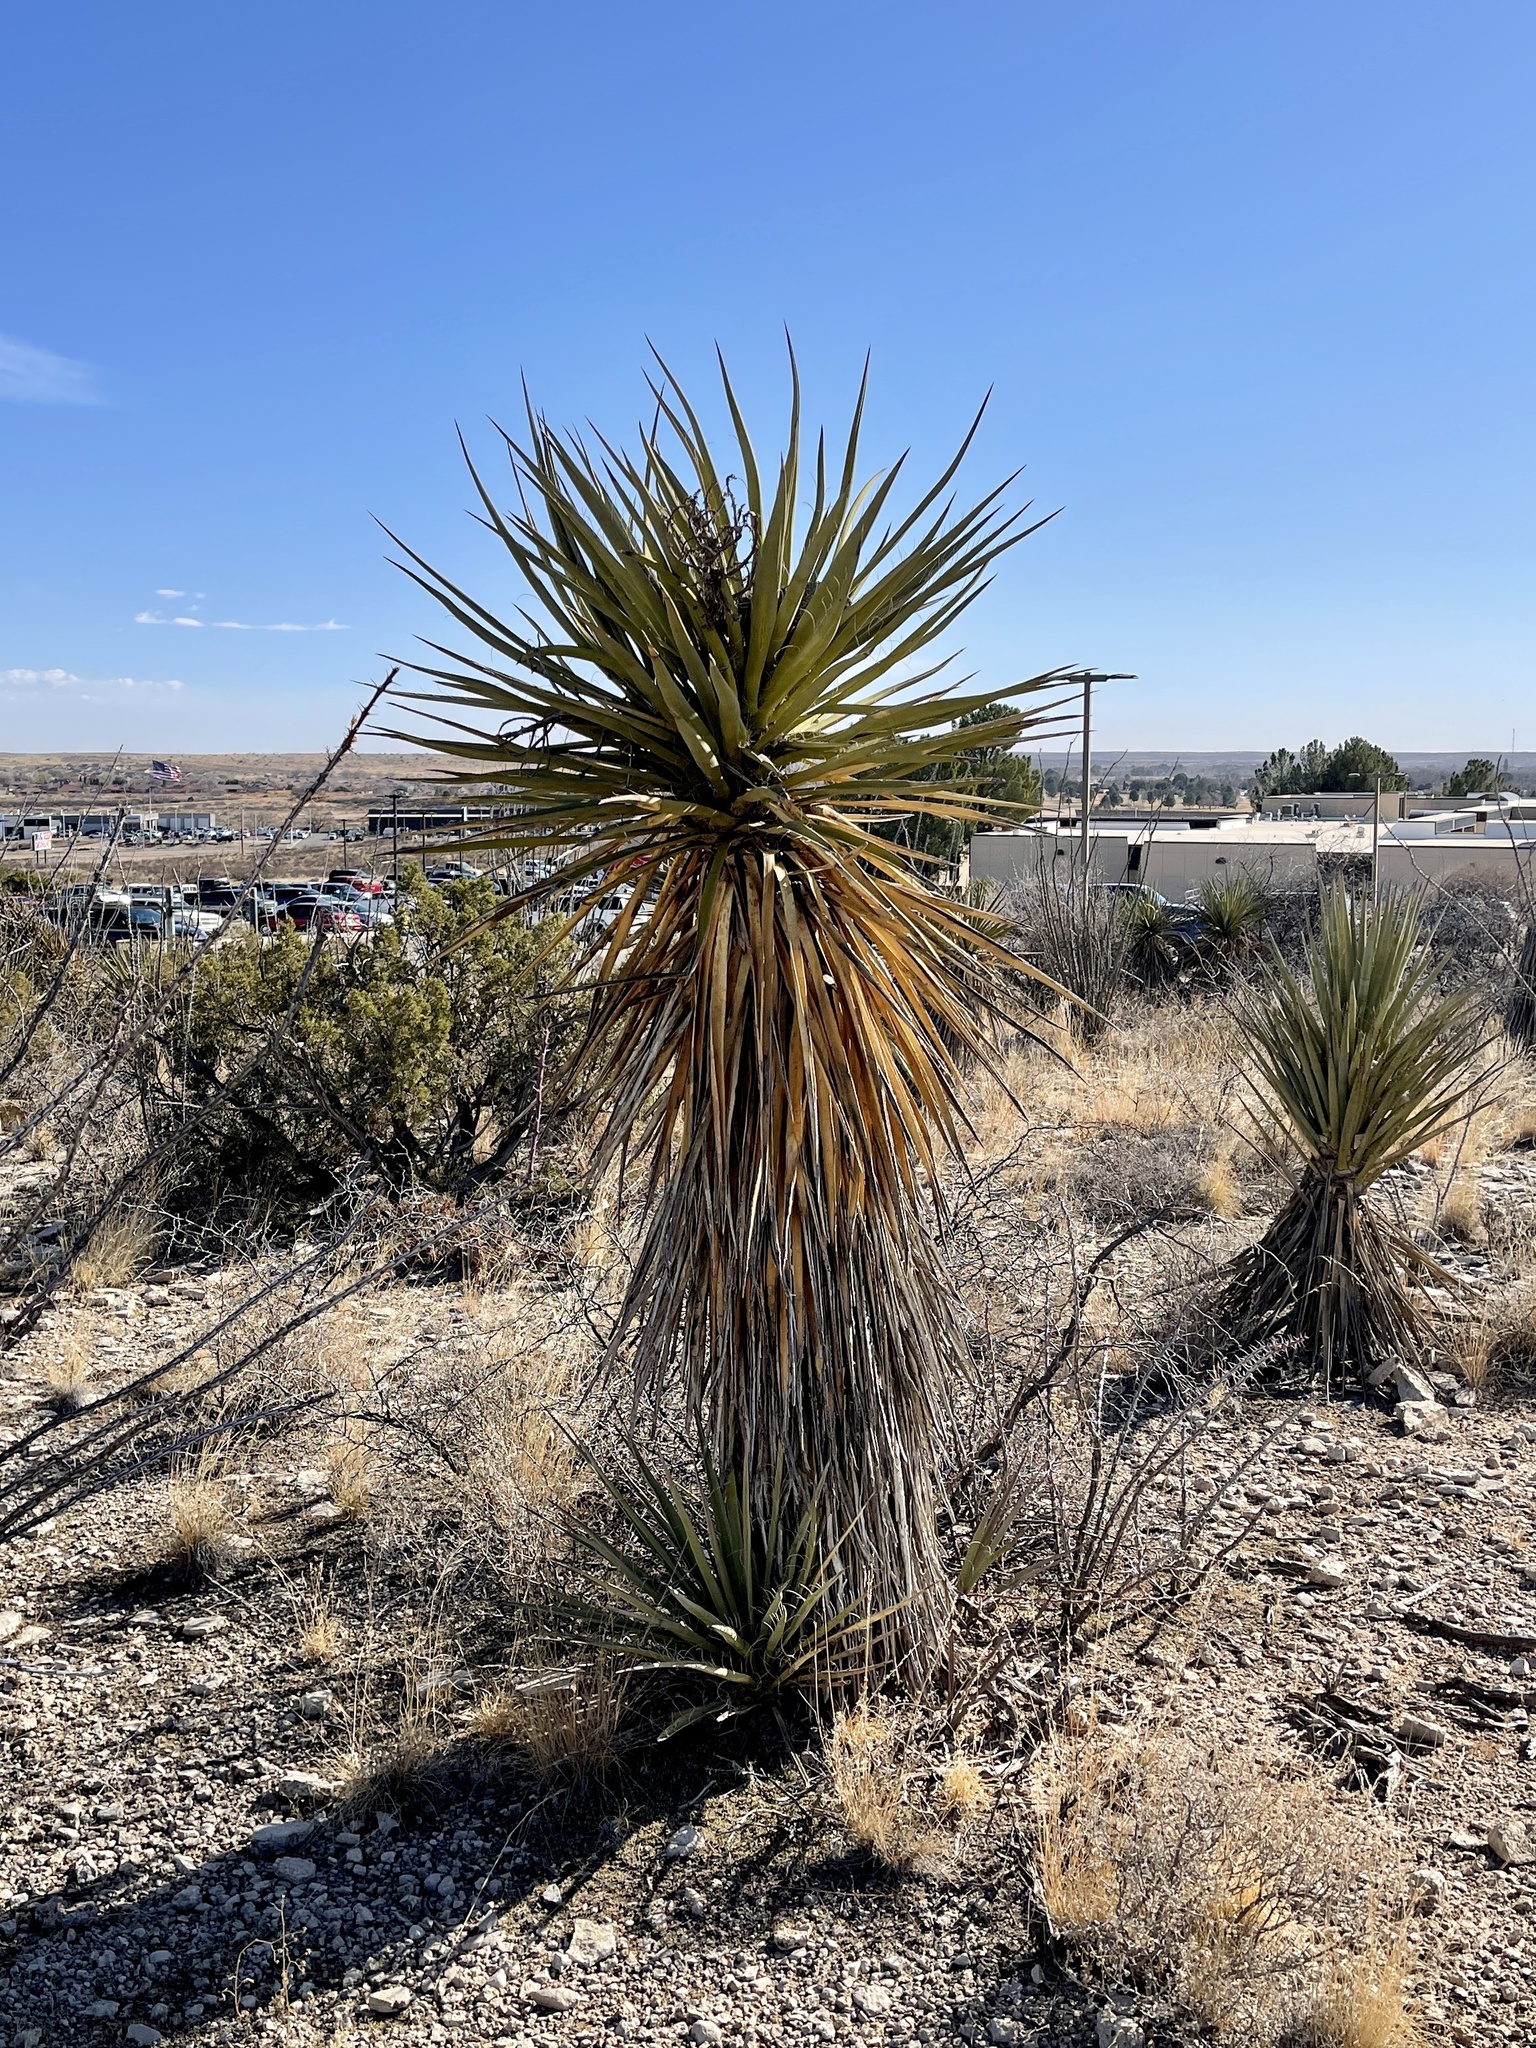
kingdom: Plantae
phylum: Tracheophyta
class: Liliopsida
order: Asparagales
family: Asparagaceae
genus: Yucca
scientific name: Yucca treculiana
